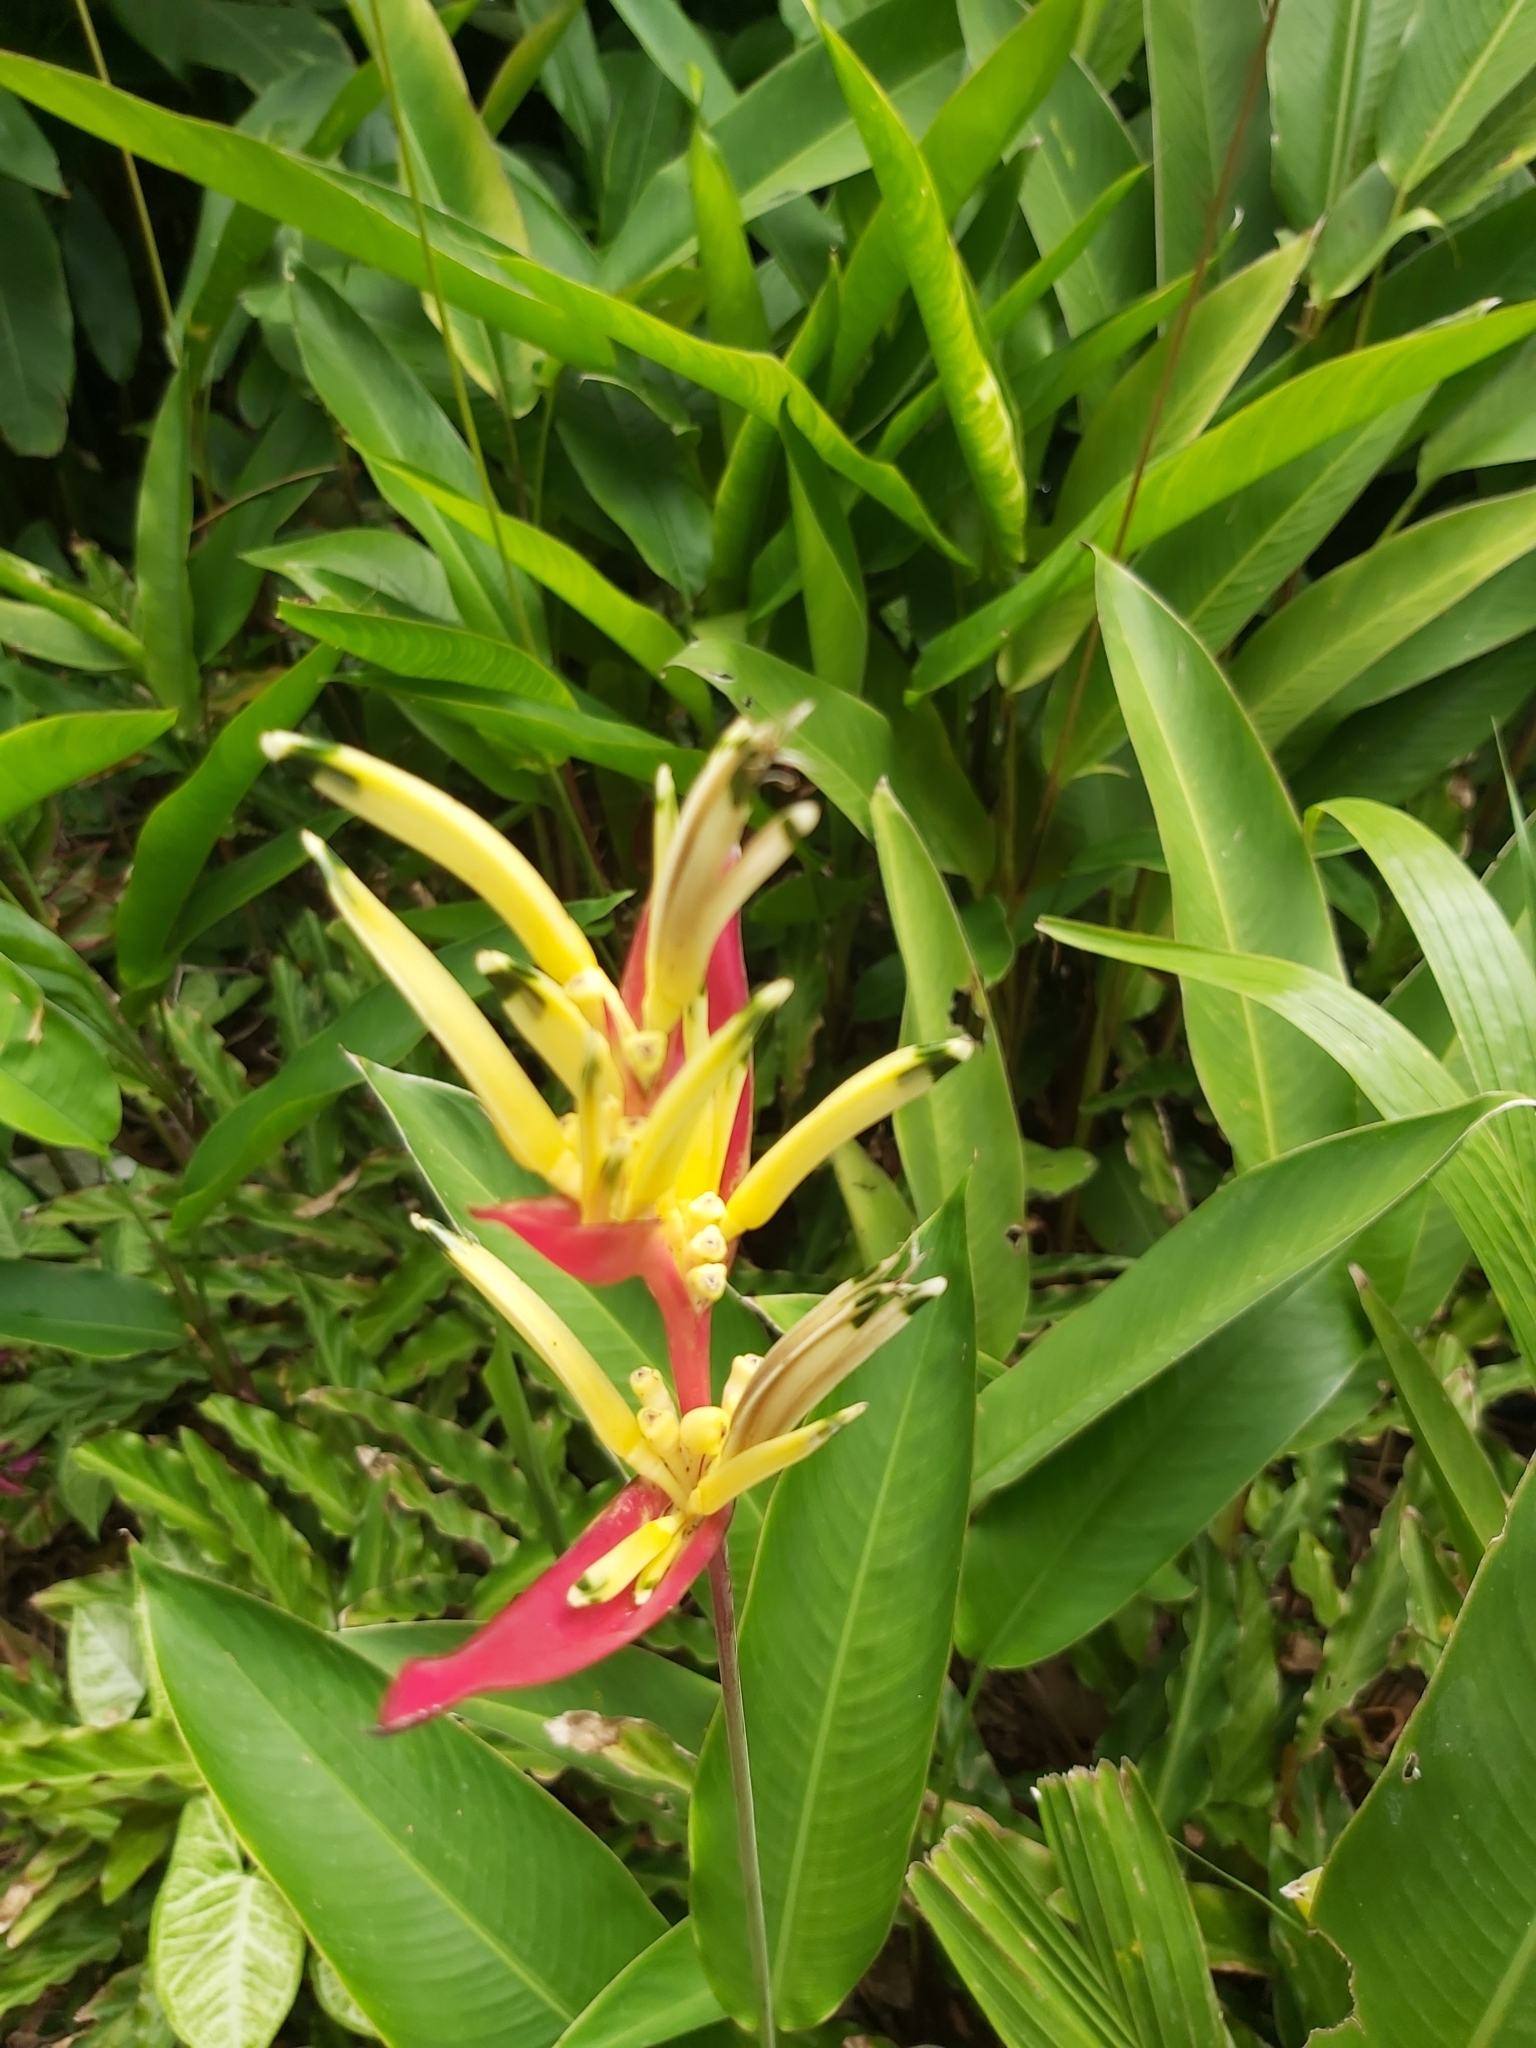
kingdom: Plantae
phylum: Tracheophyta
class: Liliopsida
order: Zingiberales
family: Heliconiaceae
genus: Heliconia
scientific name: Heliconia psittacorum
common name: Parrot's-flower
